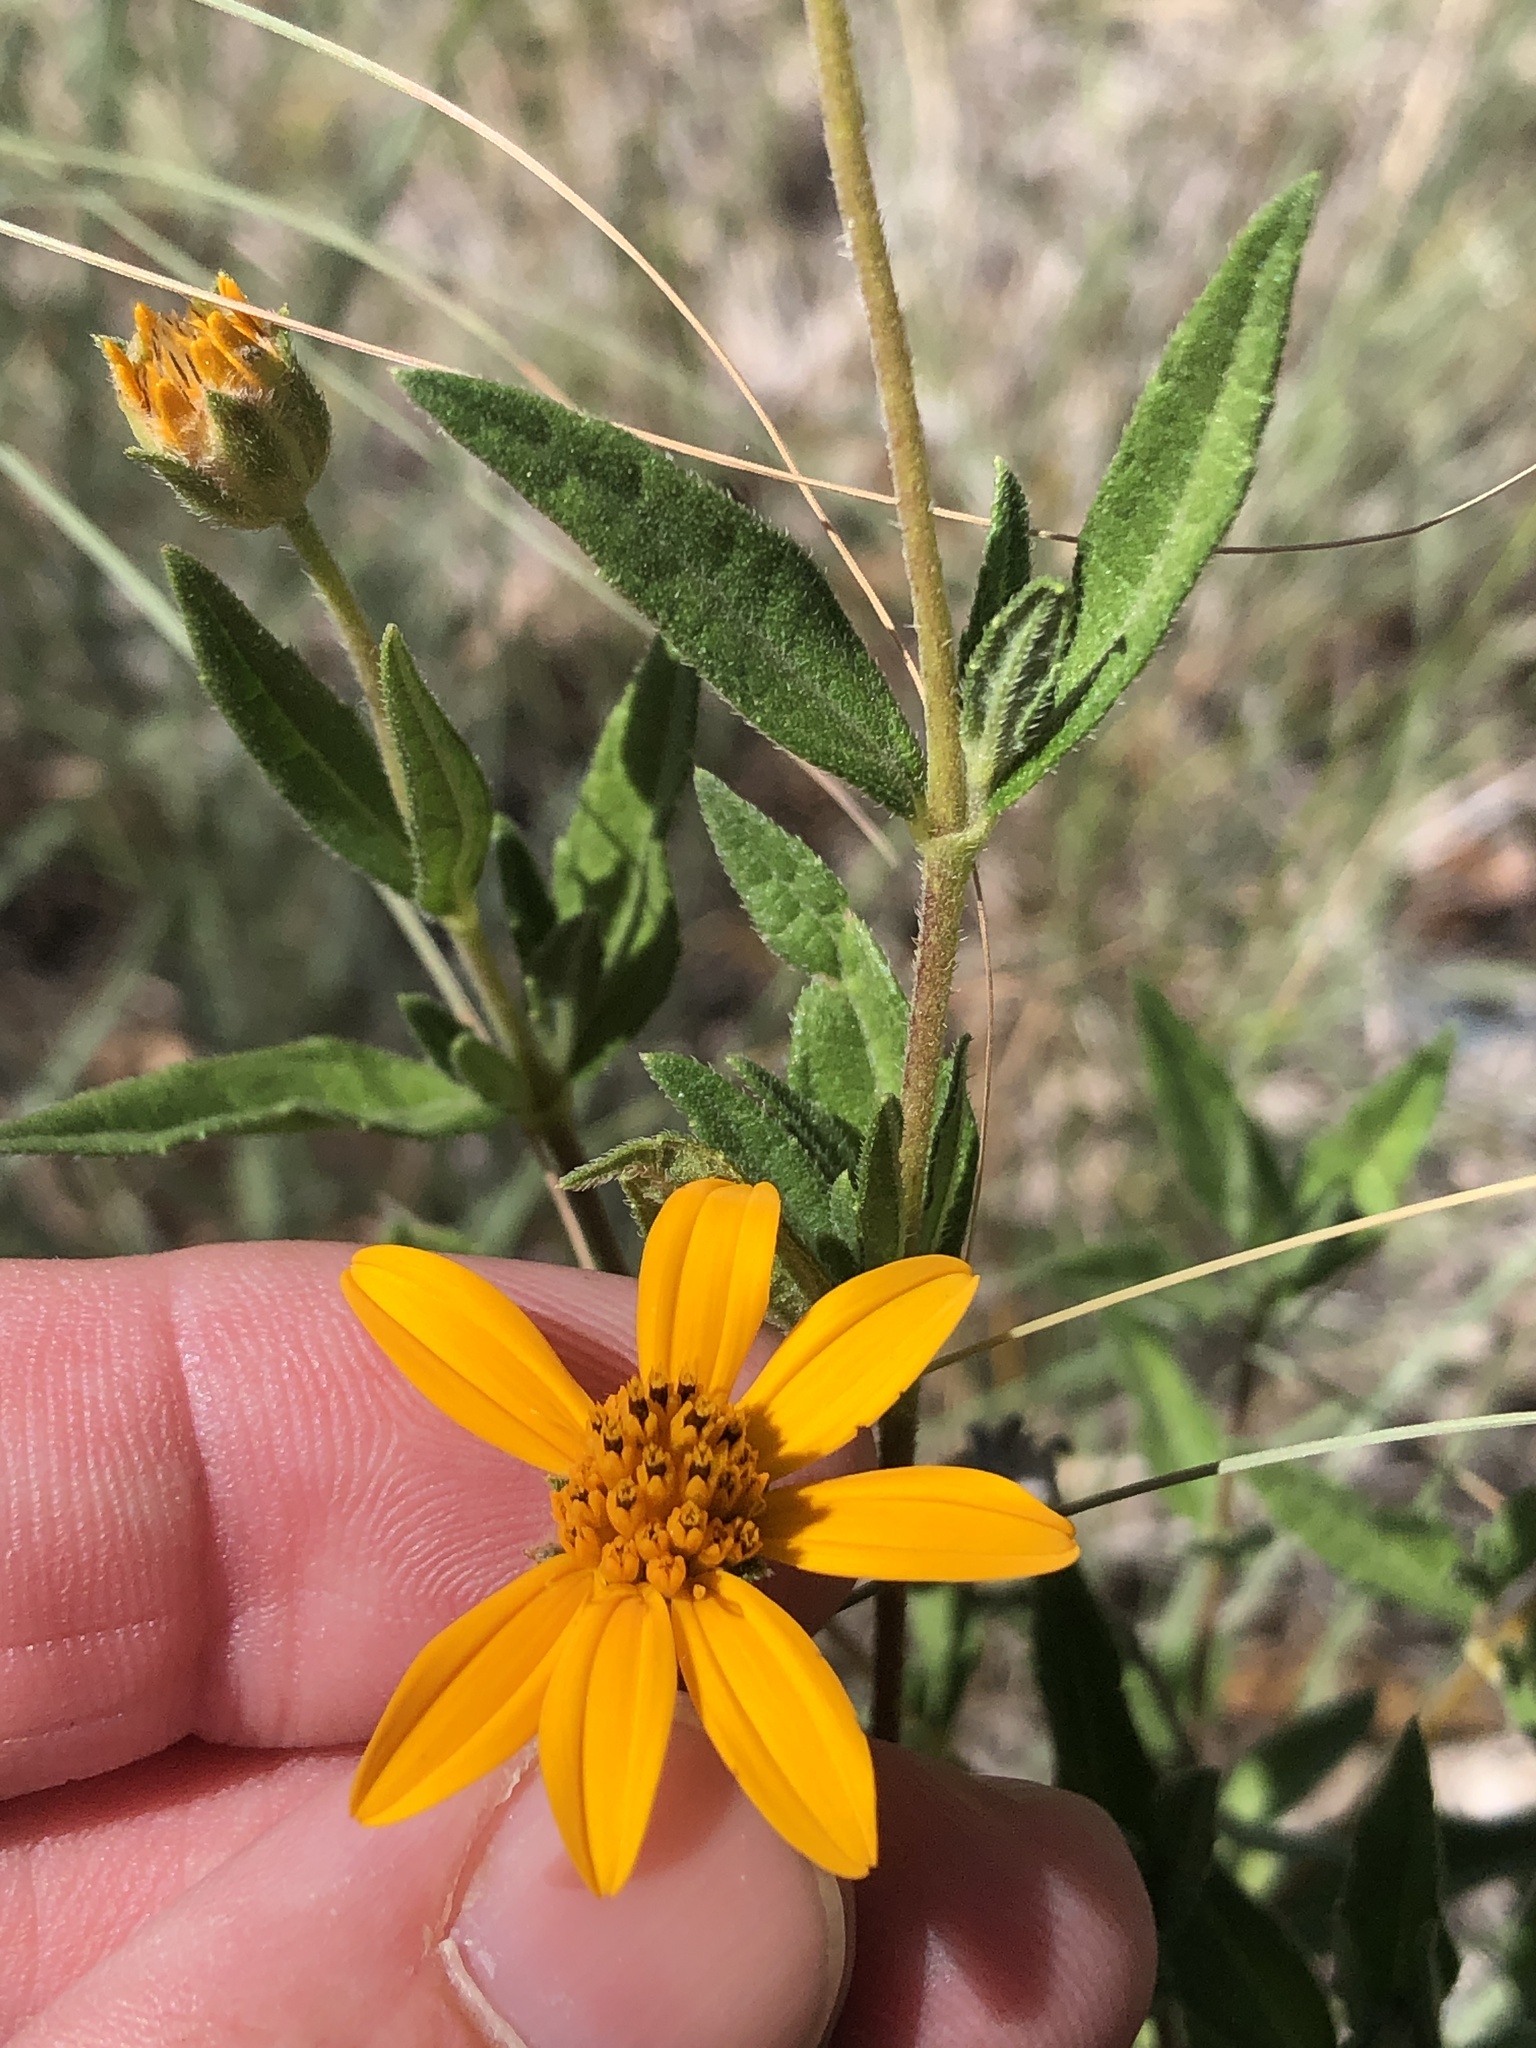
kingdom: Plantae
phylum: Tracheophyta
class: Magnoliopsida
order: Asterales
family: Asteraceae
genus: Wedelia
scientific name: Wedelia acapulcensis
